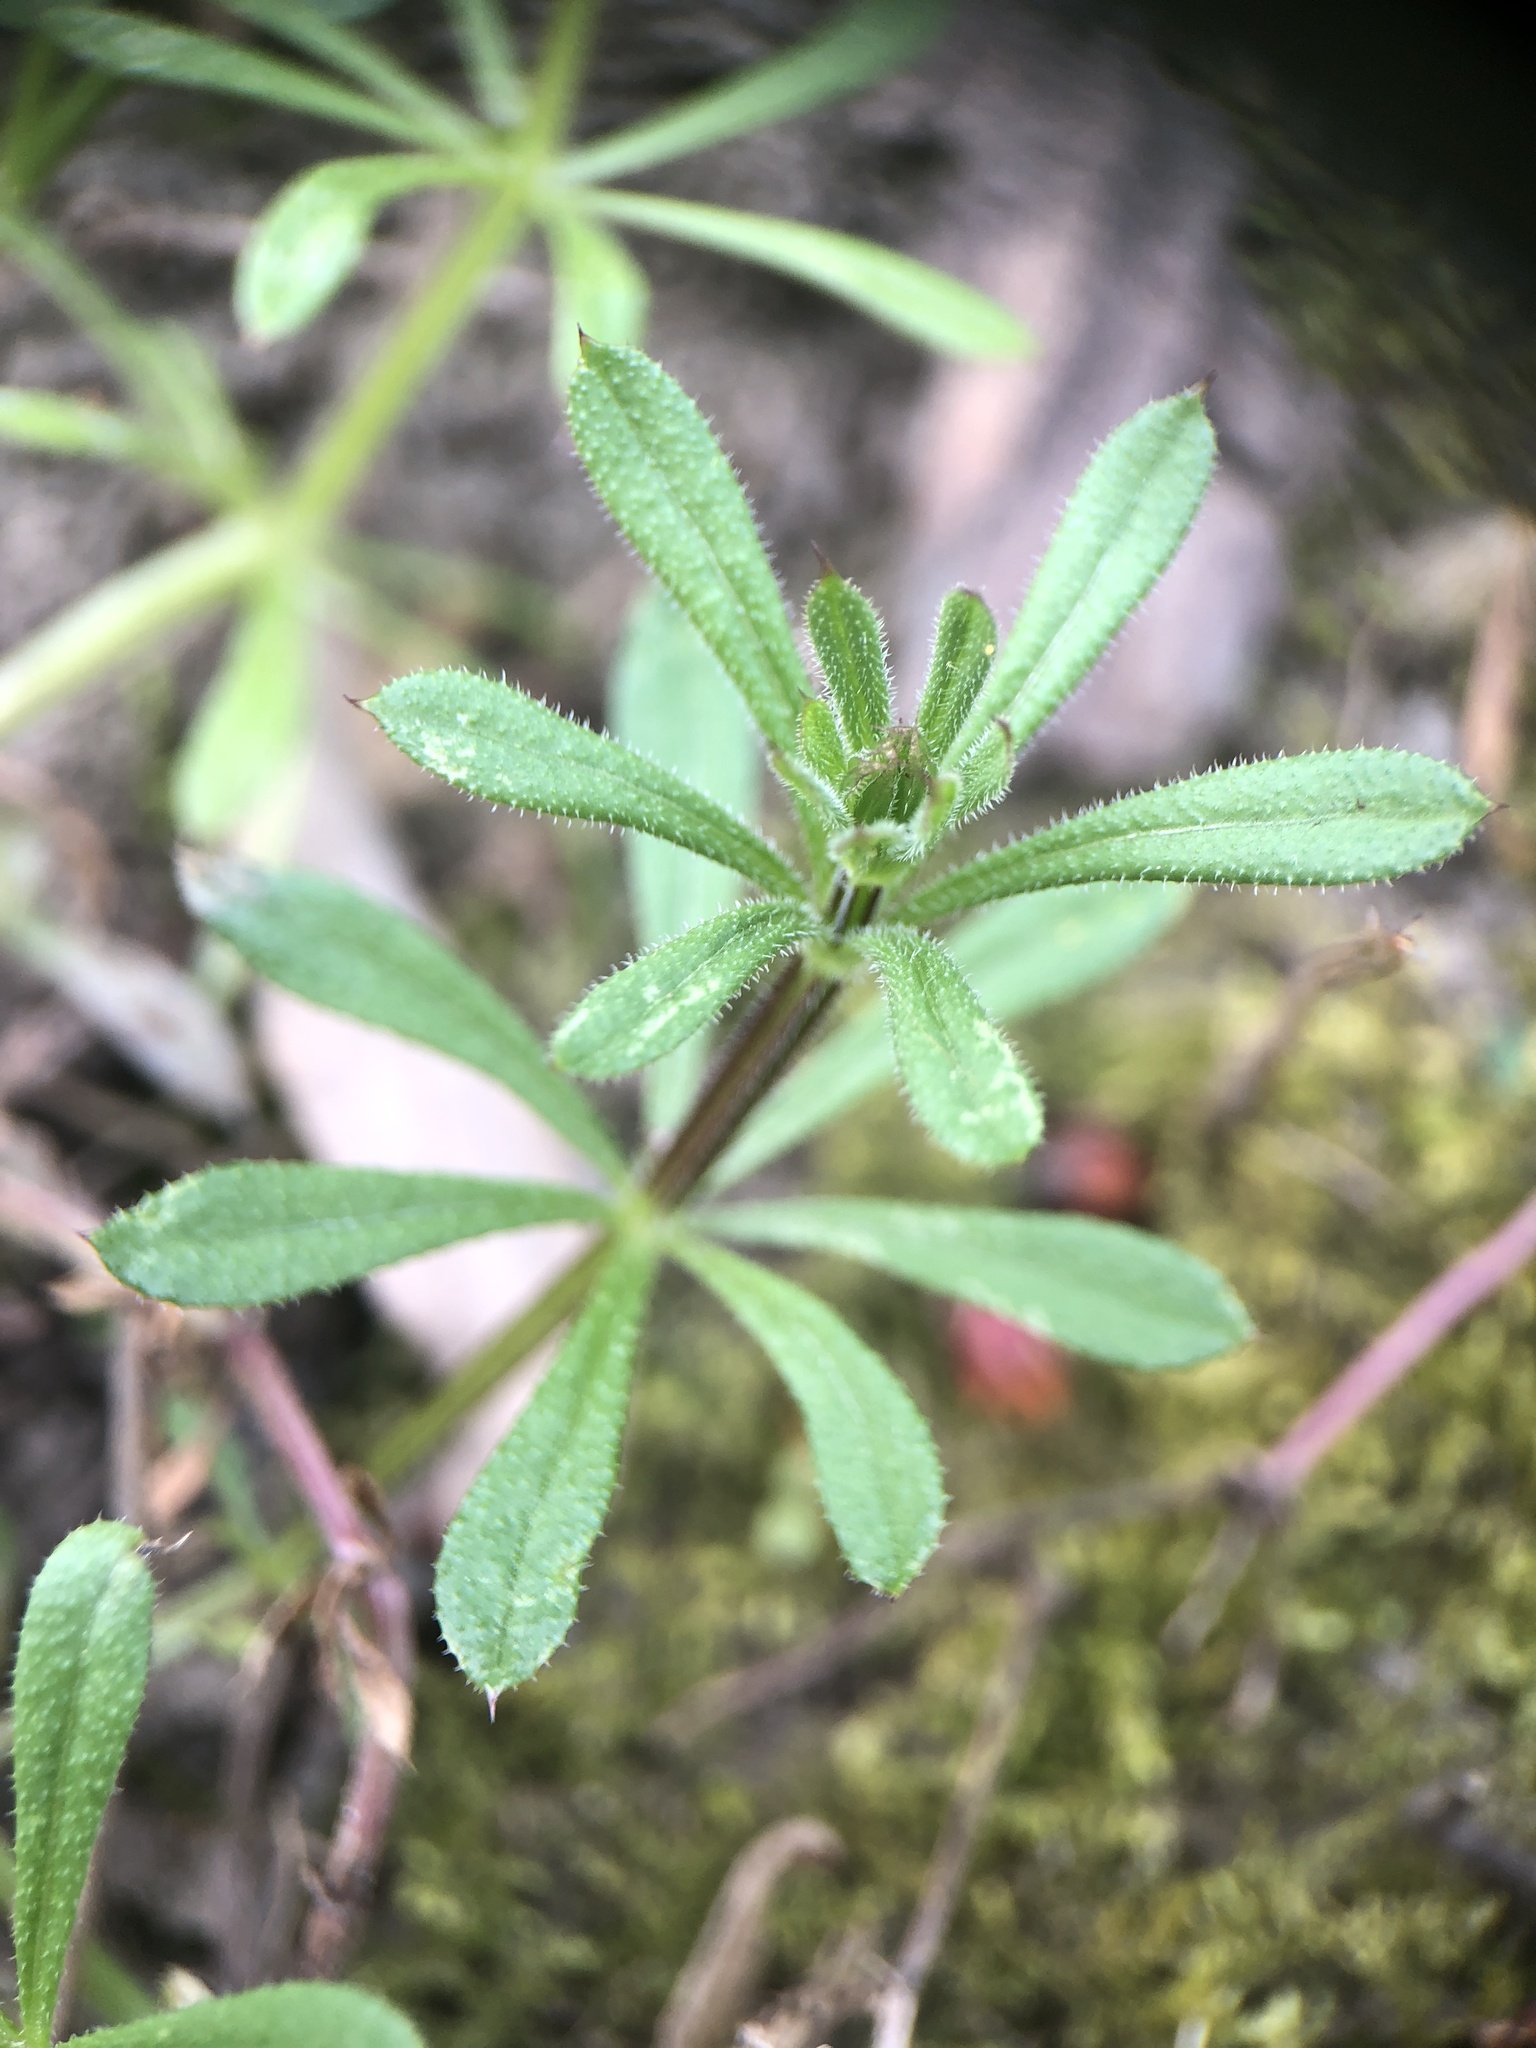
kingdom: Plantae
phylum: Tracheophyta
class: Magnoliopsida
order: Gentianales
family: Rubiaceae
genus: Galium
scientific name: Galium aparine
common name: Cleavers
